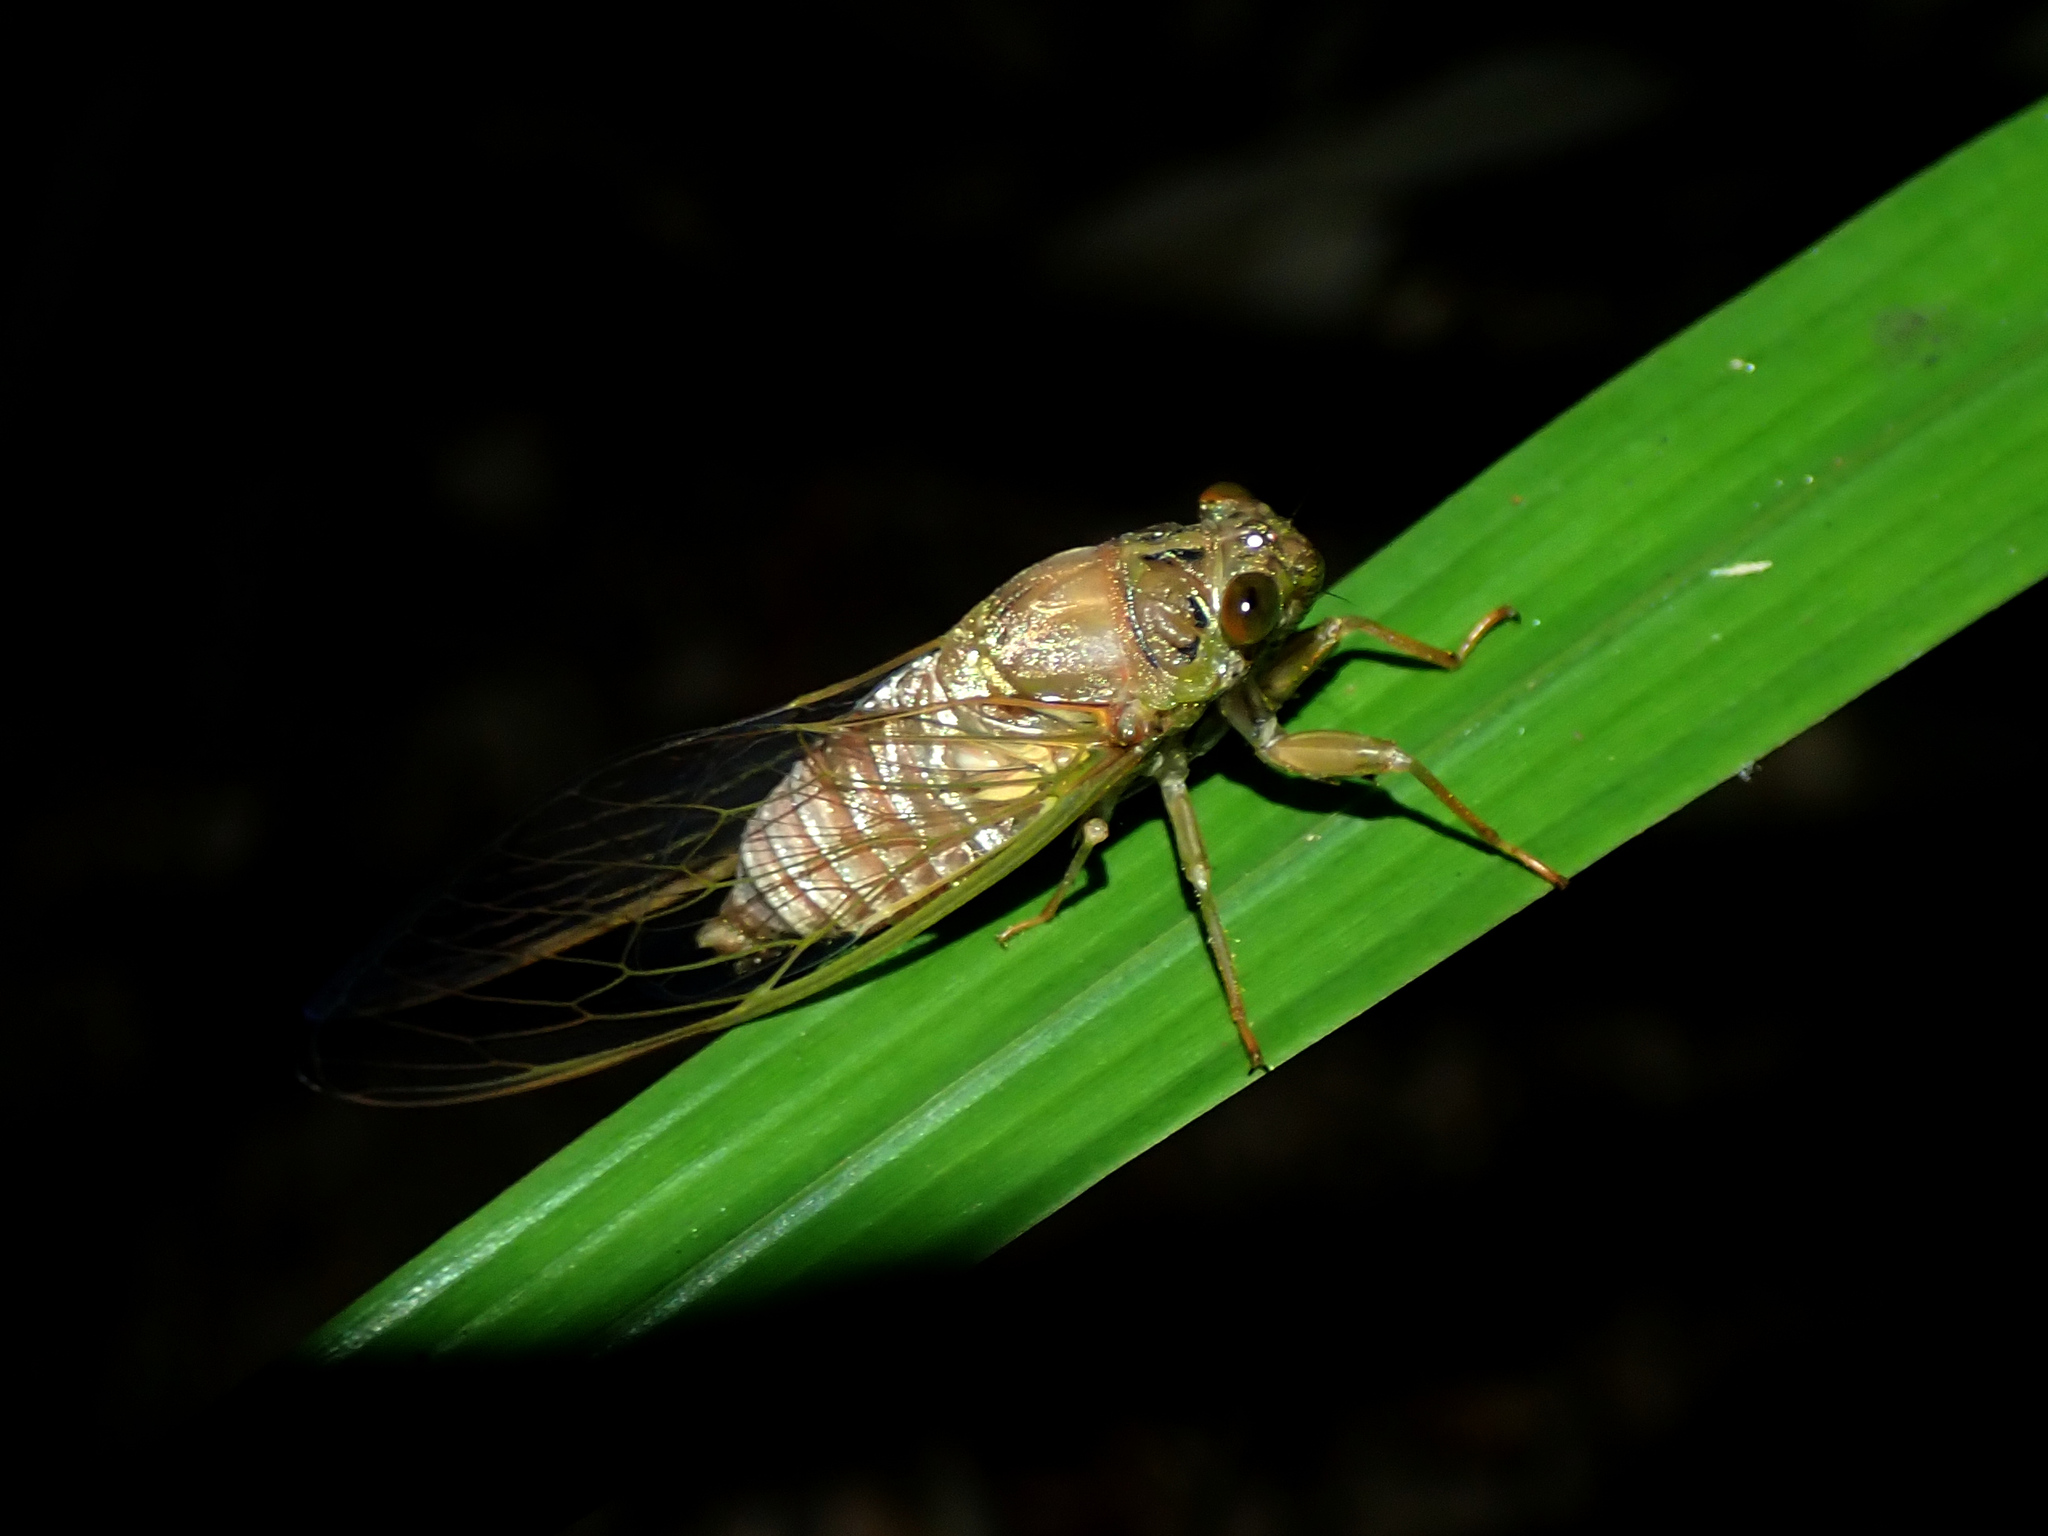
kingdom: Animalia
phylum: Arthropoda
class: Insecta
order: Hemiptera
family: Cicadidae
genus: Tamasa
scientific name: Tamasa doddi
